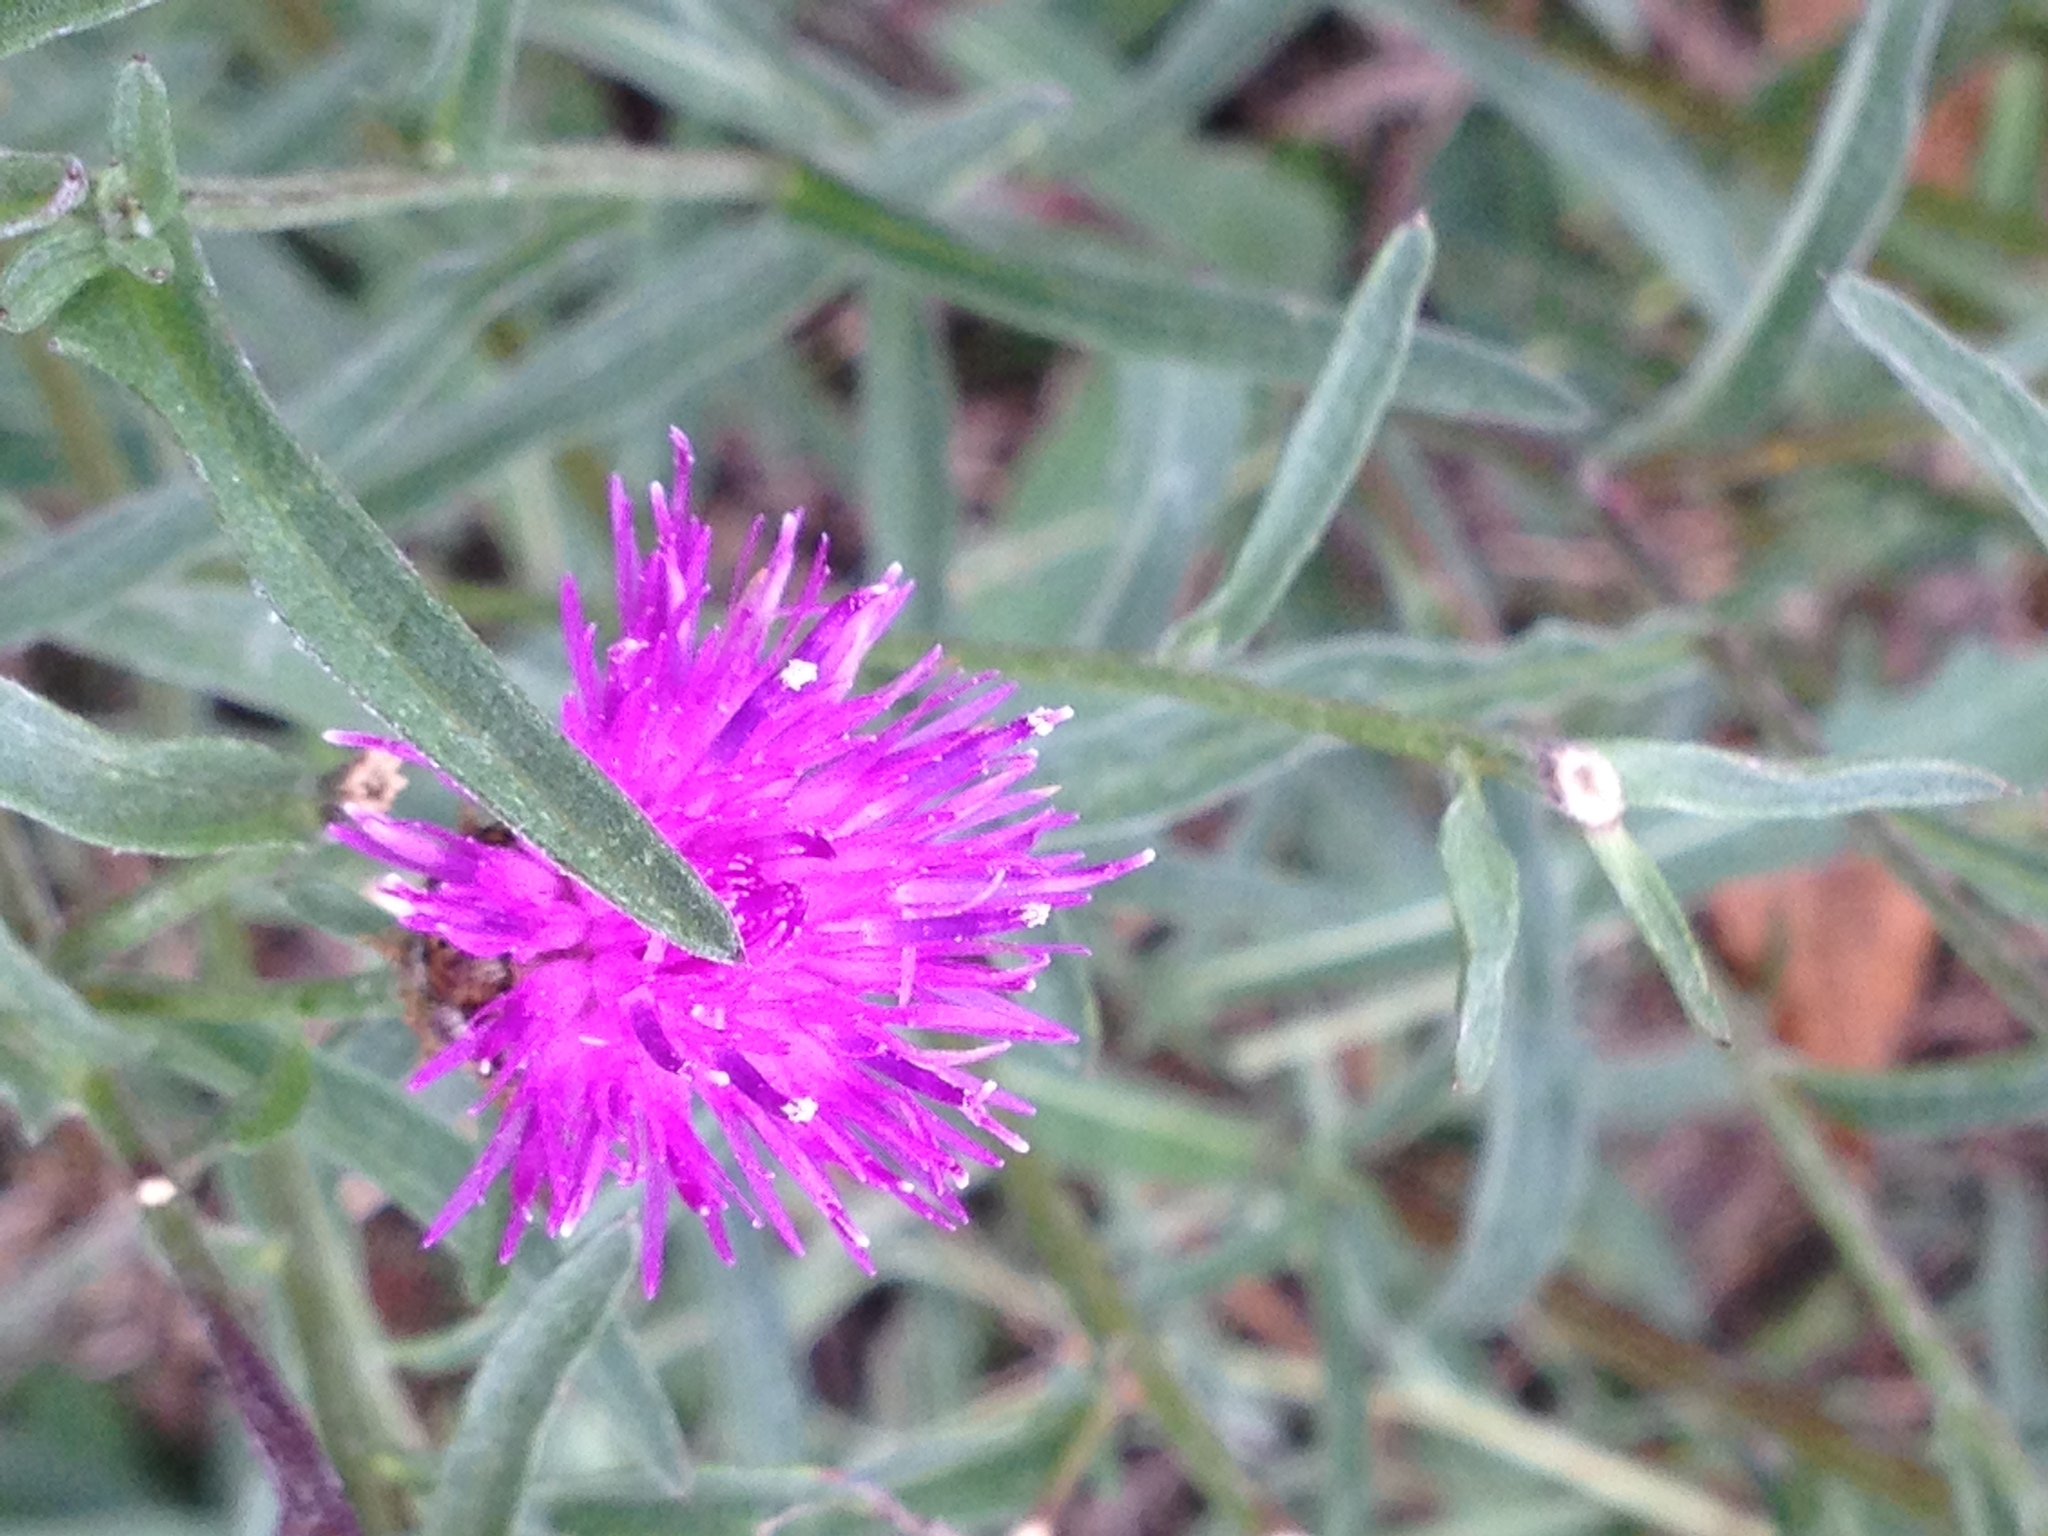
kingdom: Plantae
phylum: Tracheophyta
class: Magnoliopsida
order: Asterales
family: Asteraceae
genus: Centaurea
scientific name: Centaurea stoebe
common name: Spotted knapweed
